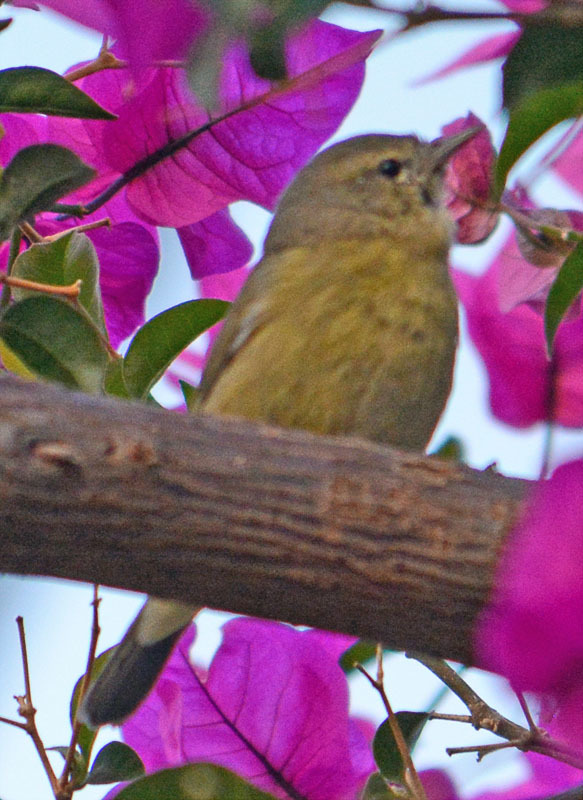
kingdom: Animalia
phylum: Chordata
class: Aves
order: Passeriformes
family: Parulidae
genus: Leiothlypis
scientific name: Leiothlypis celata
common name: Orange-crowned warbler
